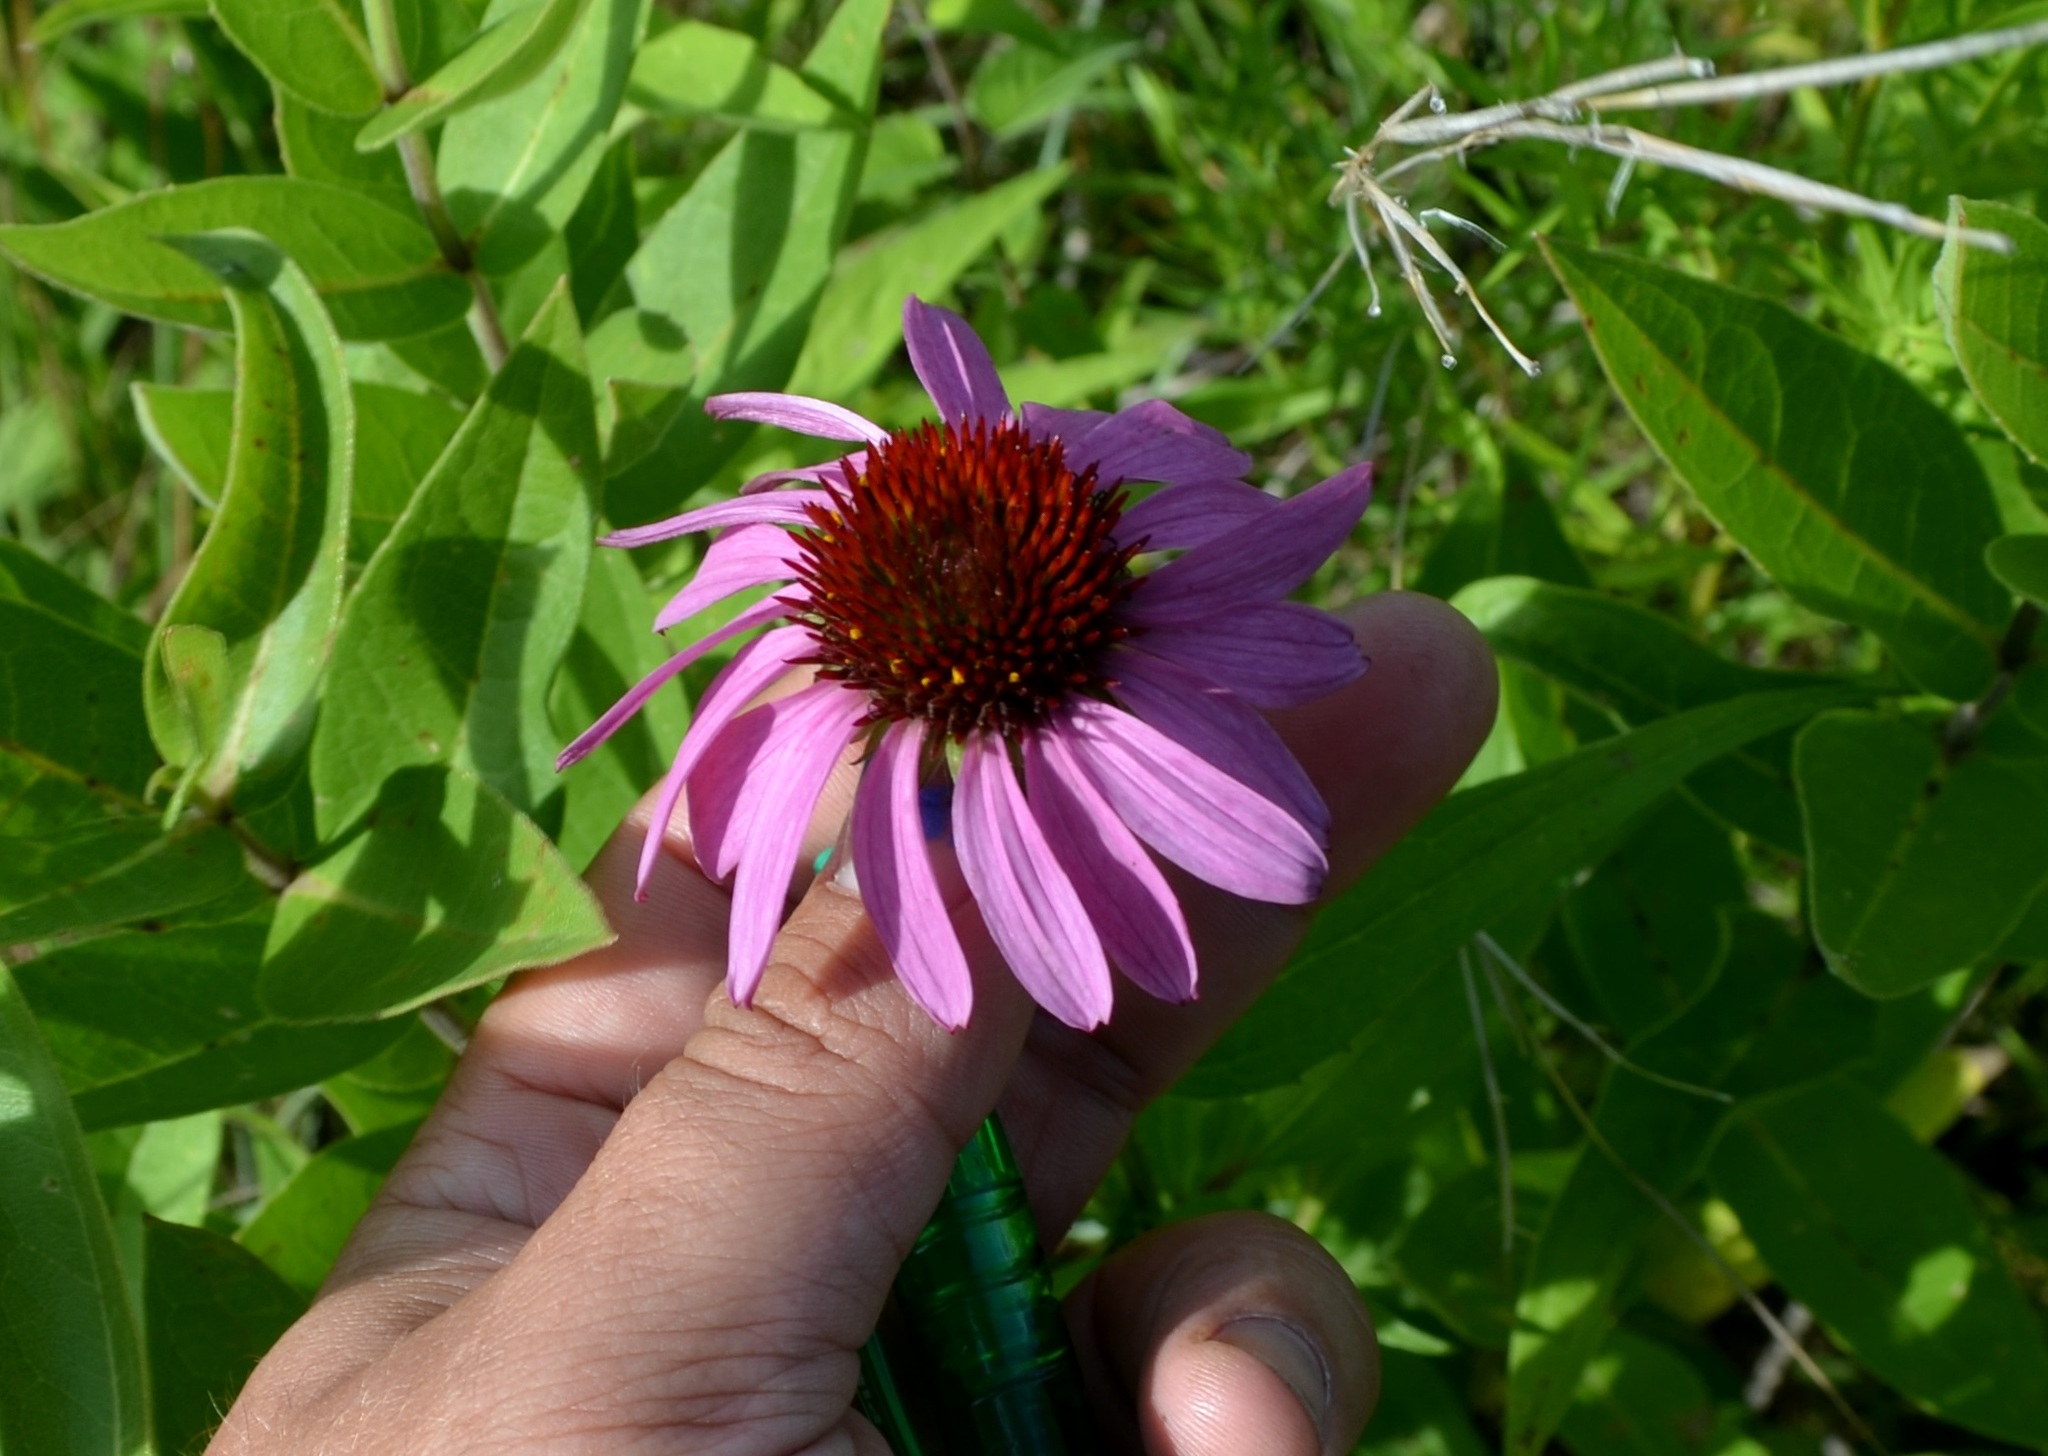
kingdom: Plantae
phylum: Tracheophyta
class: Magnoliopsida
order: Asterales
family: Asteraceae
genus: Echinacea
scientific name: Echinacea purpurea
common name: Broad-leaved purple coneflower
